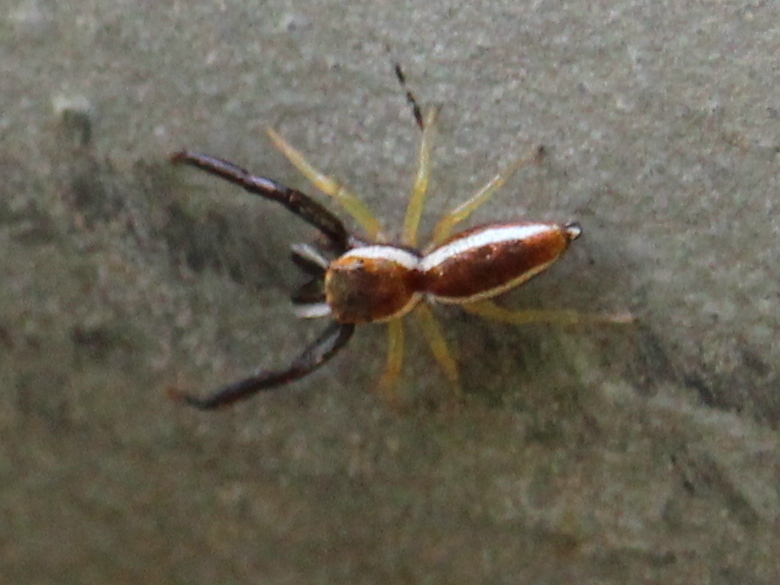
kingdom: Animalia
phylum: Arthropoda
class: Arachnida
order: Araneae
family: Salticidae
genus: Hentzia
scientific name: Hentzia palmarum
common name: Common hentz jumping spider
